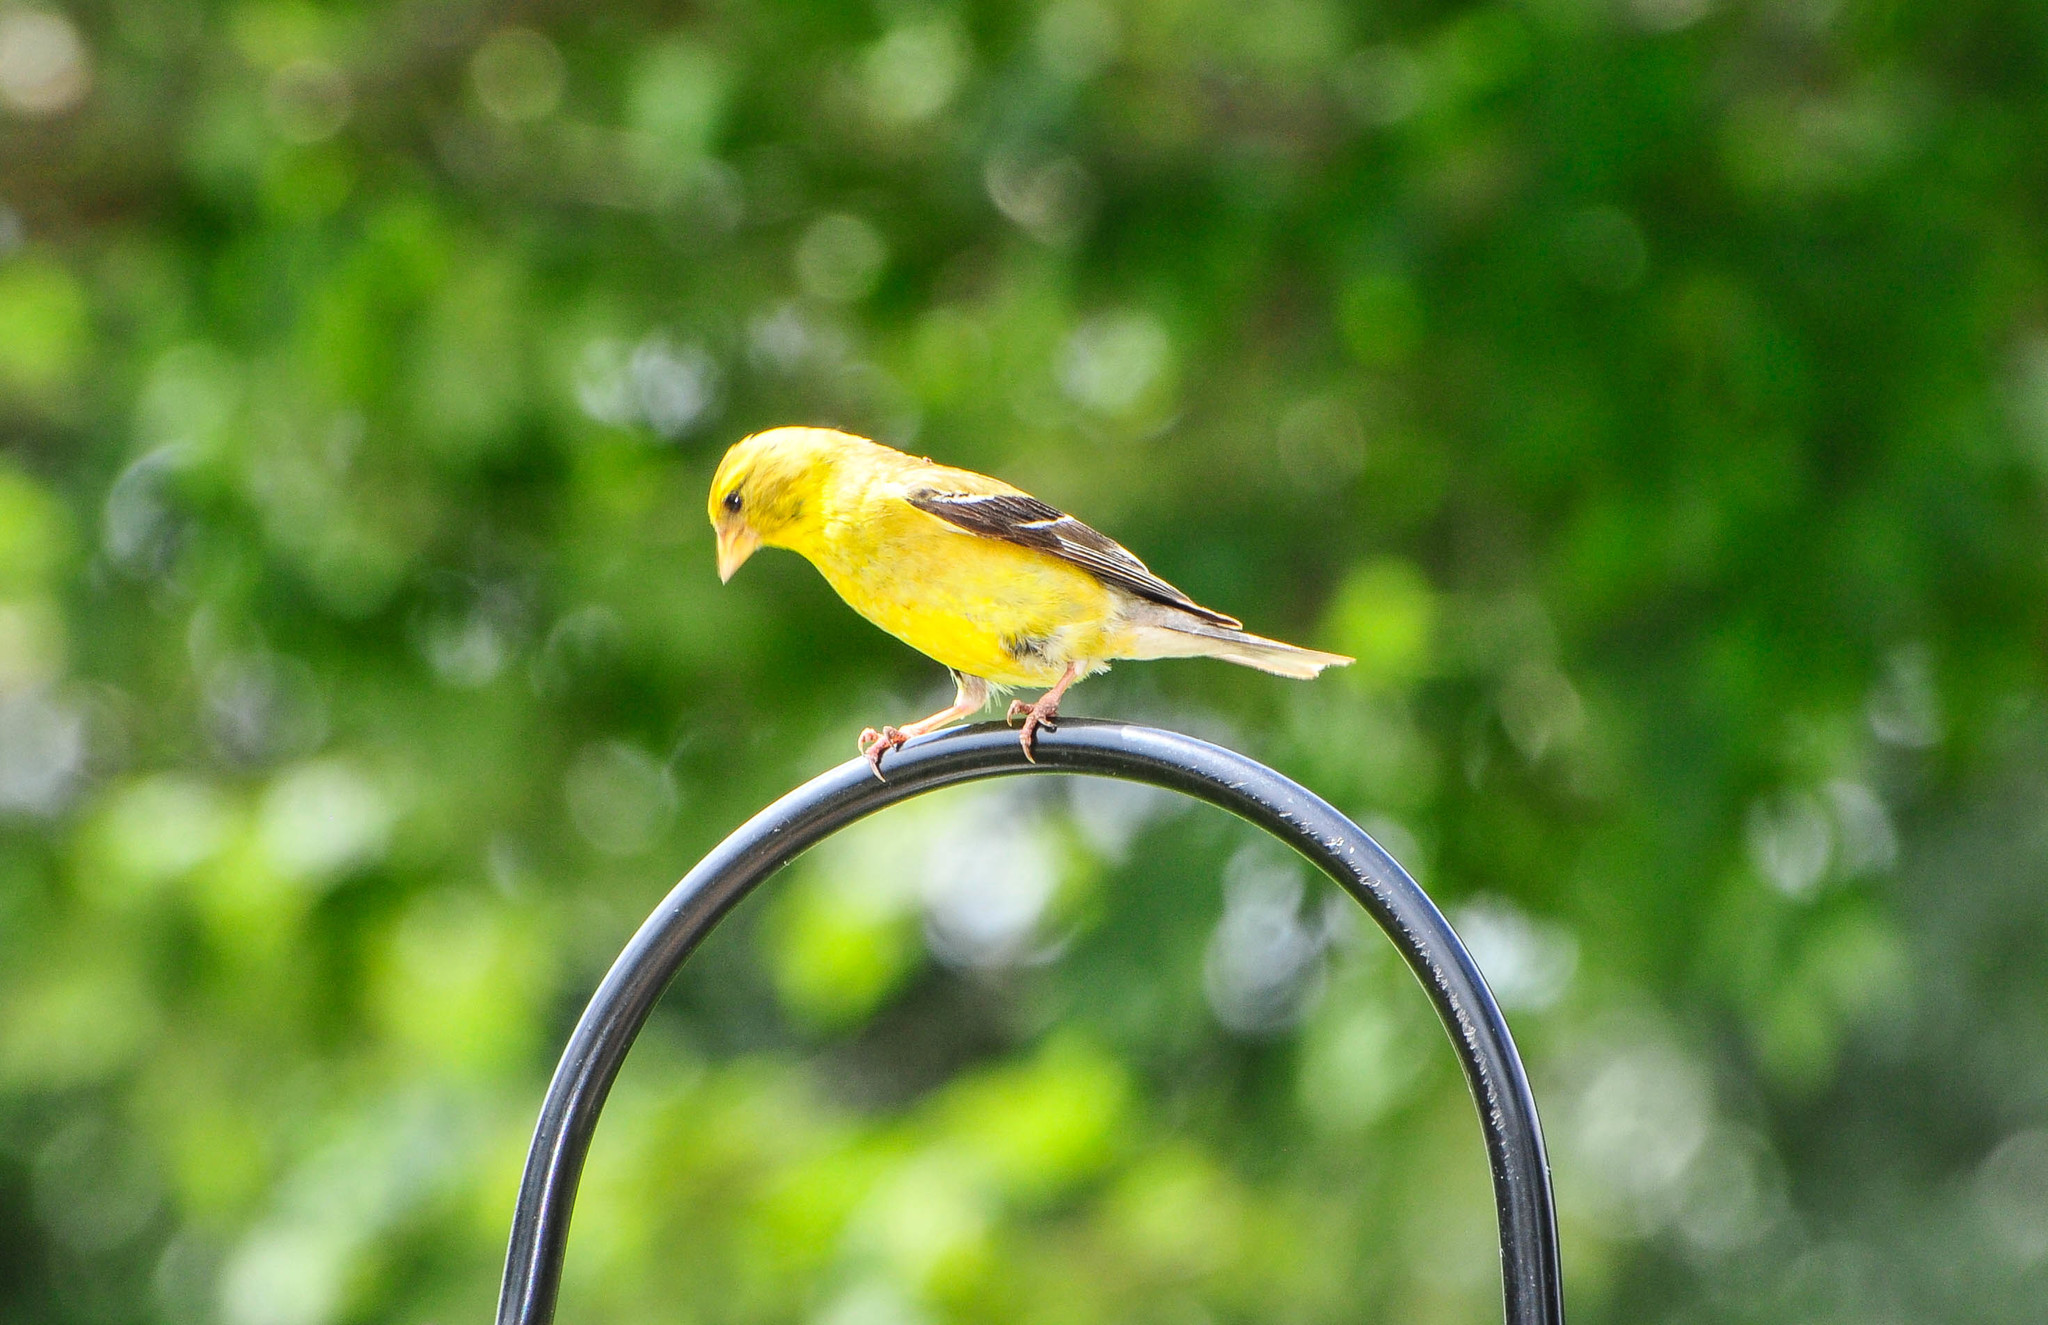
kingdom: Animalia
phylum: Chordata
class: Aves
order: Passeriformes
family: Fringillidae
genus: Spinus
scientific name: Spinus tristis
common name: American goldfinch
